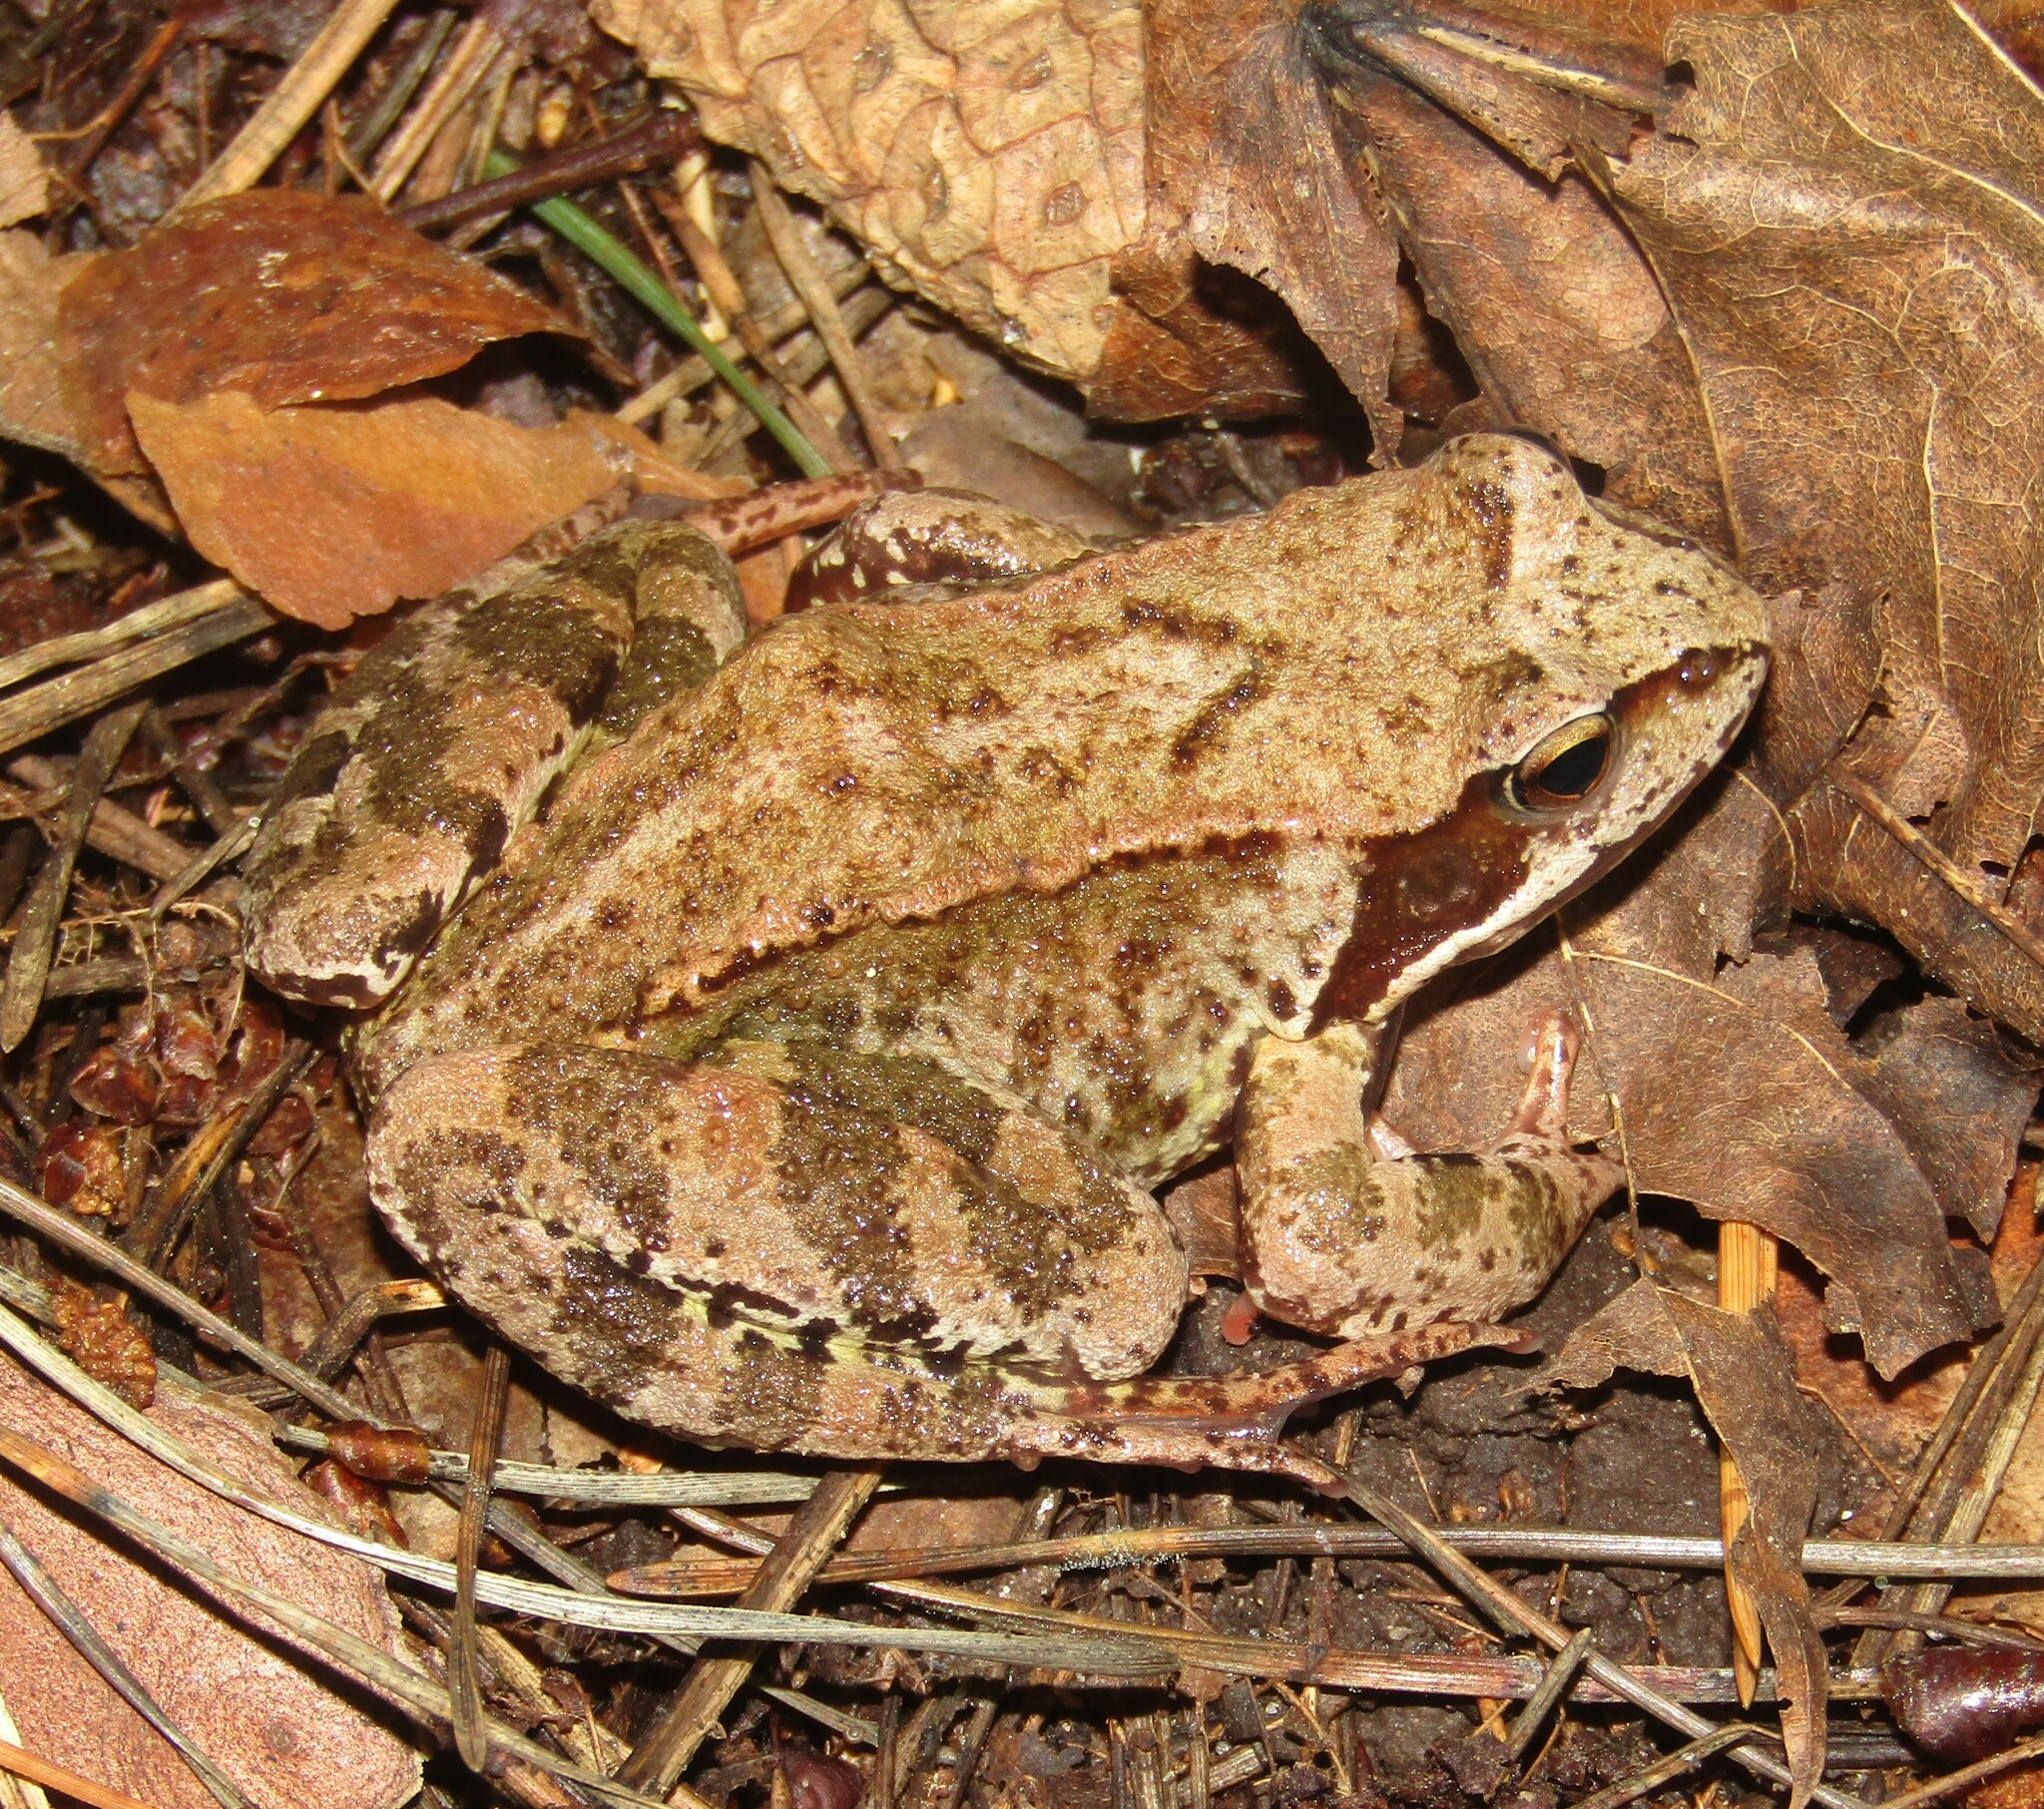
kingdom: Animalia
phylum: Chordata
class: Amphibia
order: Anura
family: Ranidae
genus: Rana
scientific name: Rana temporaria
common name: Common frog
